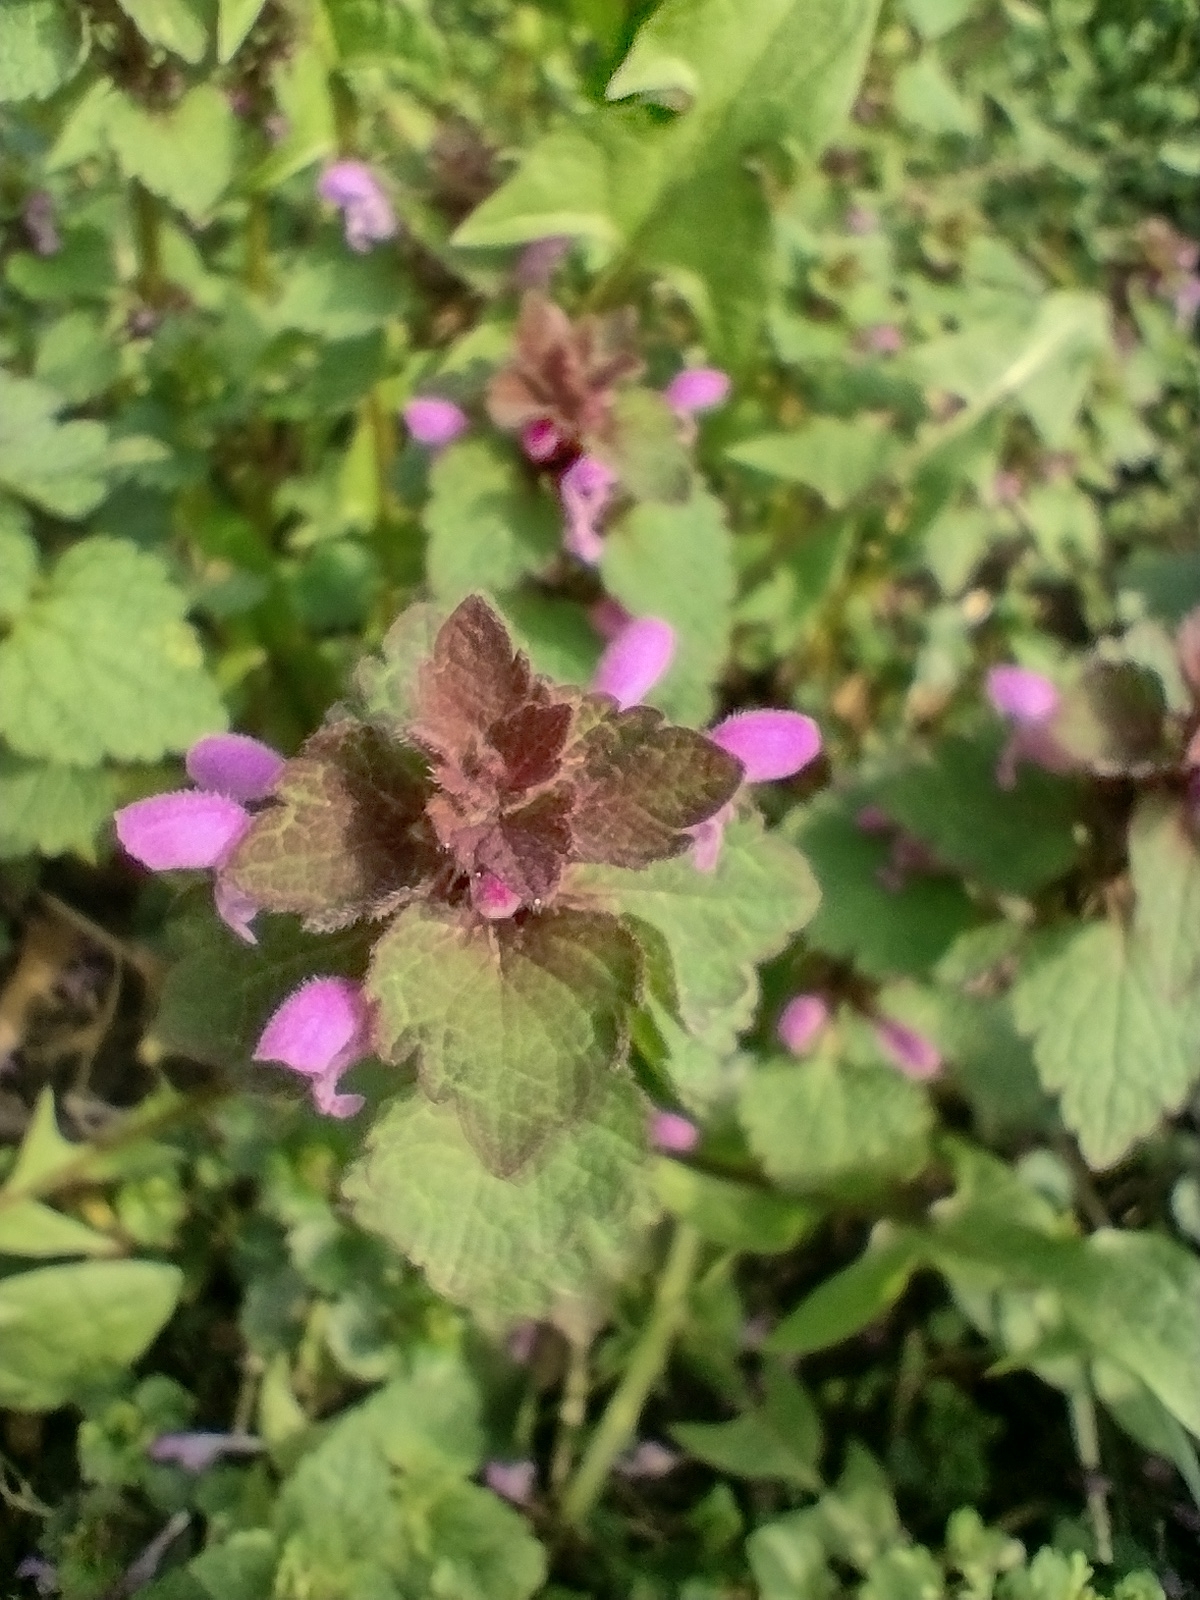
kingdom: Plantae
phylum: Tracheophyta
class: Magnoliopsida
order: Lamiales
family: Lamiaceae
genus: Lamium
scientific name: Lamium purpureum
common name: Red dead-nettle
